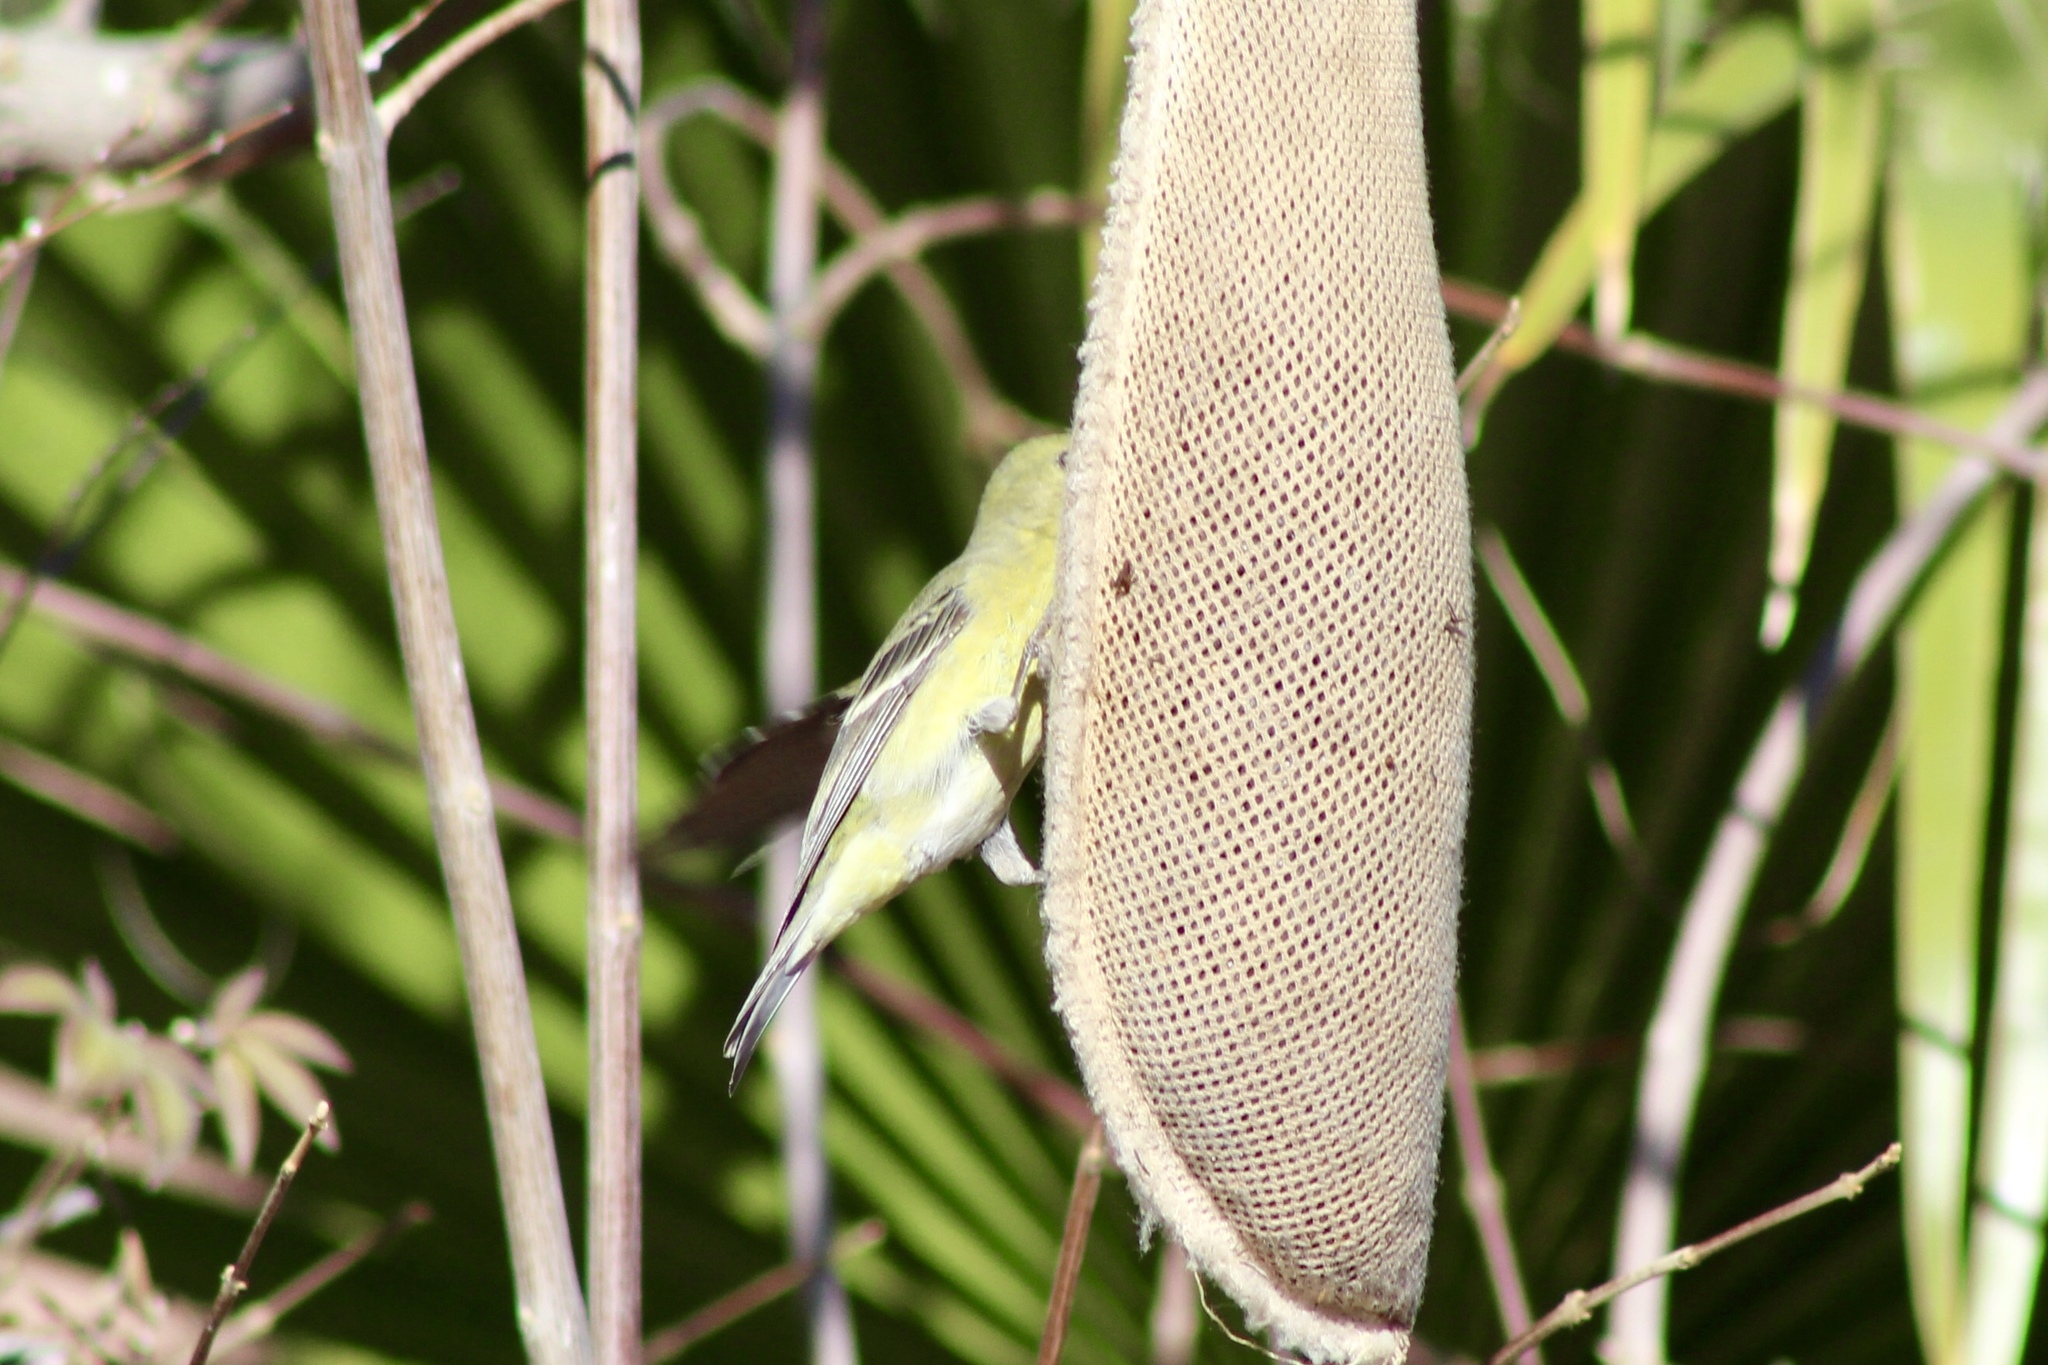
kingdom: Animalia
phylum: Chordata
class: Aves
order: Passeriformes
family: Fringillidae
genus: Spinus
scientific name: Spinus psaltria
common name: Lesser goldfinch
